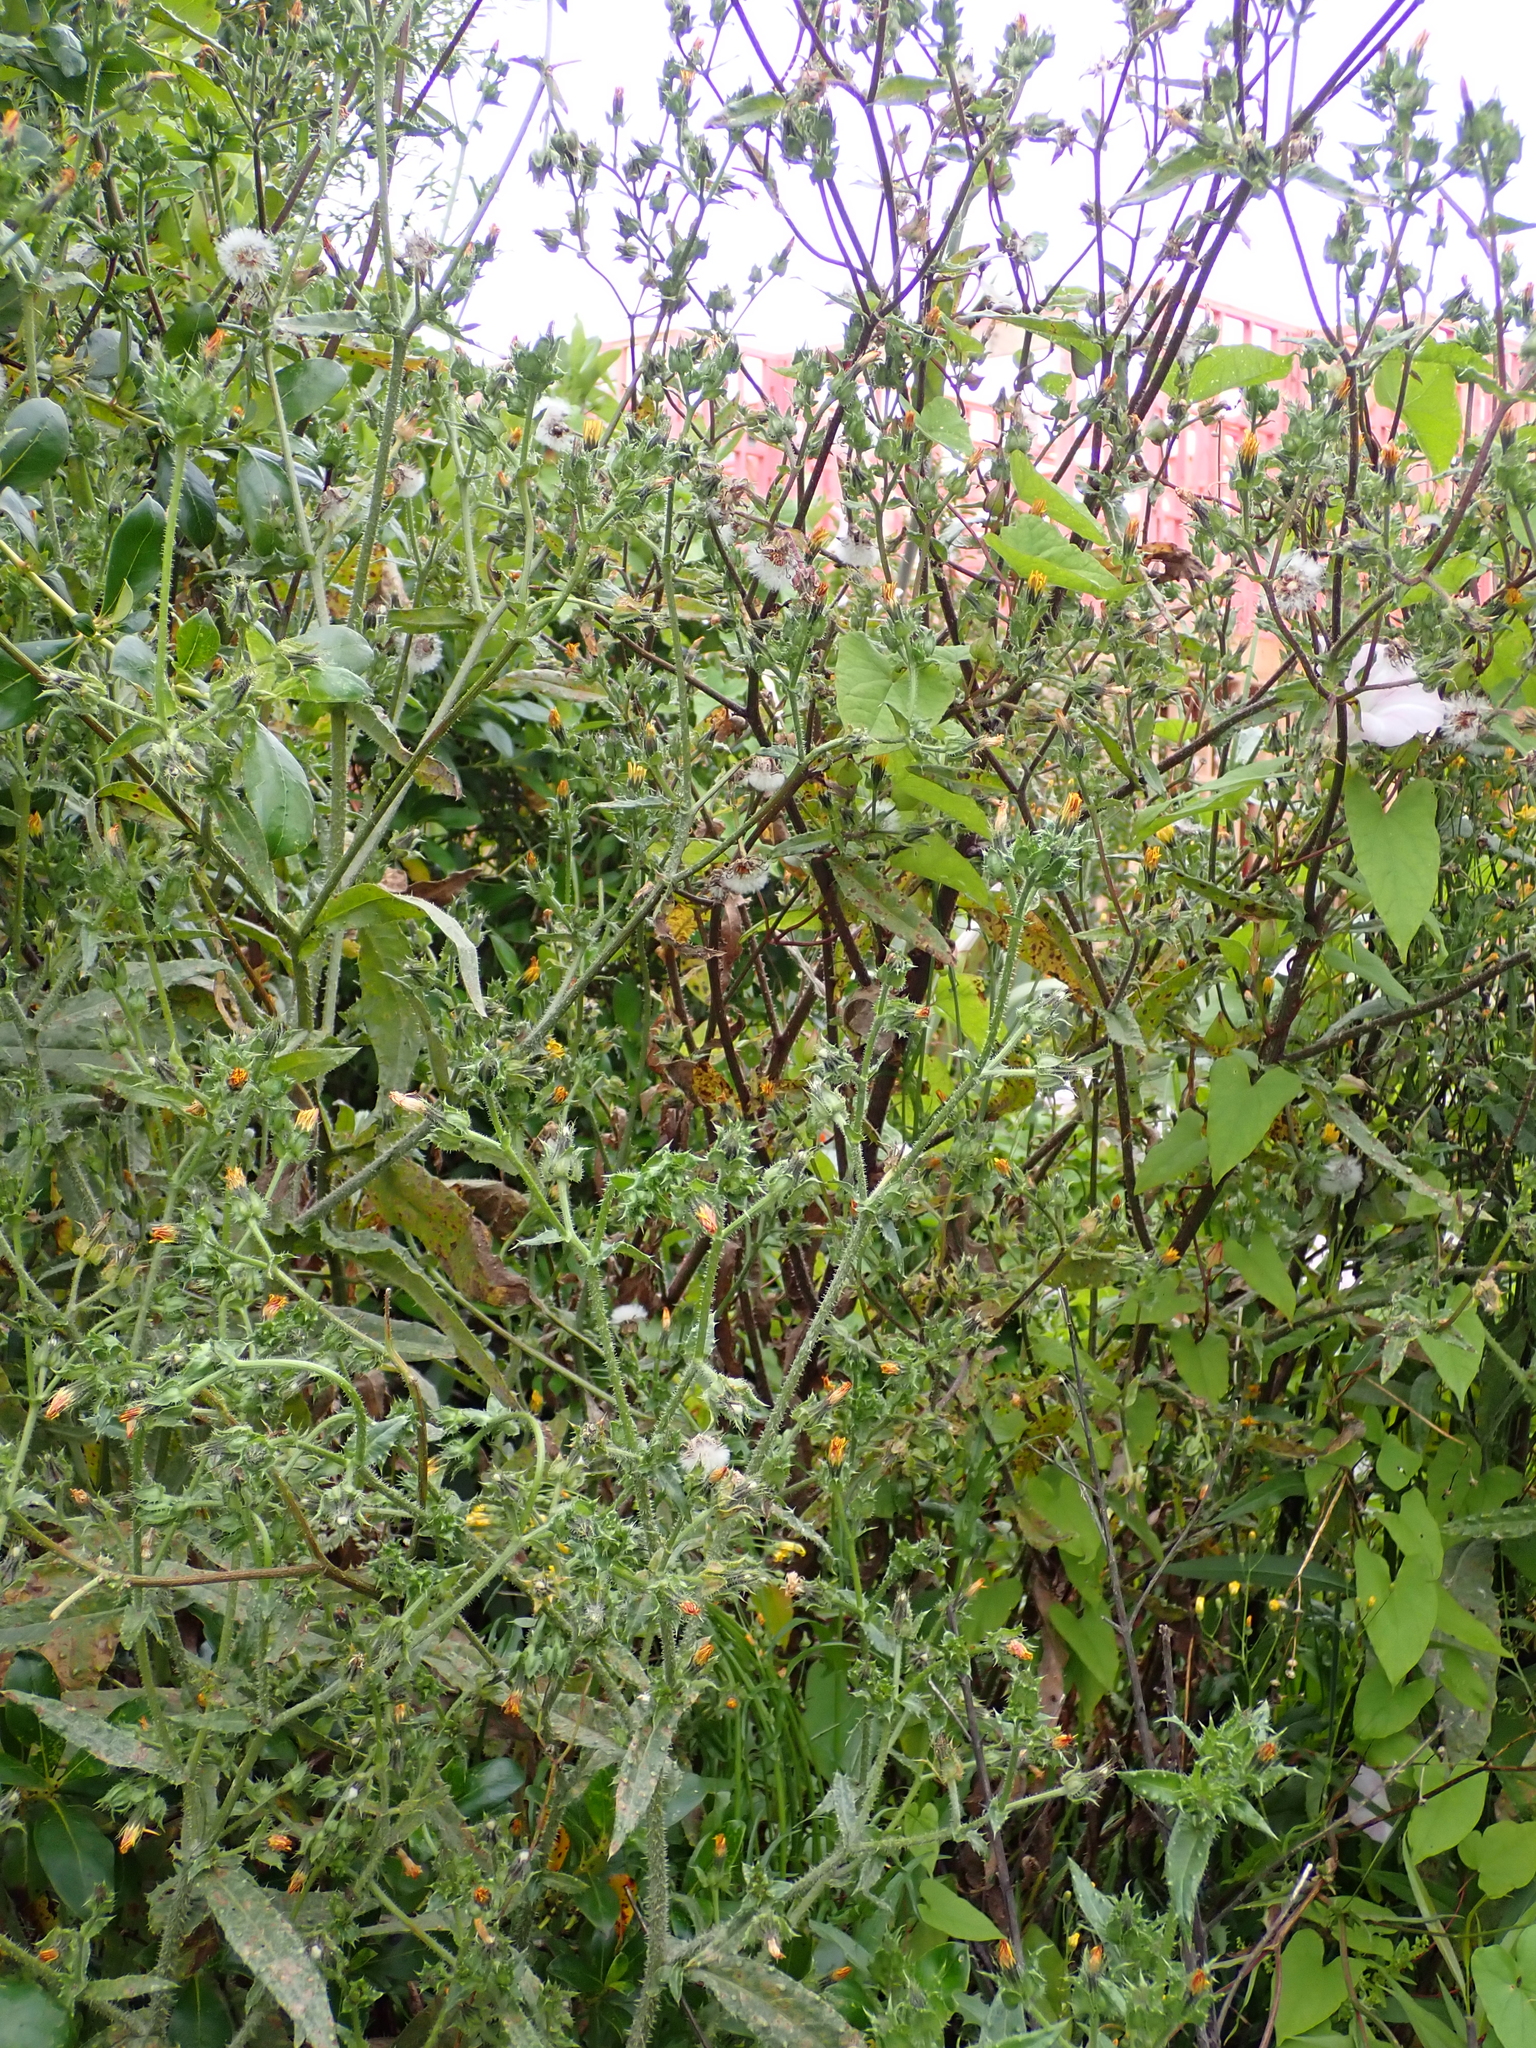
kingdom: Animalia
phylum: Arthropoda
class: Insecta
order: Hemiptera
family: Miridae
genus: Sidnia
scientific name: Sidnia kinbergi
